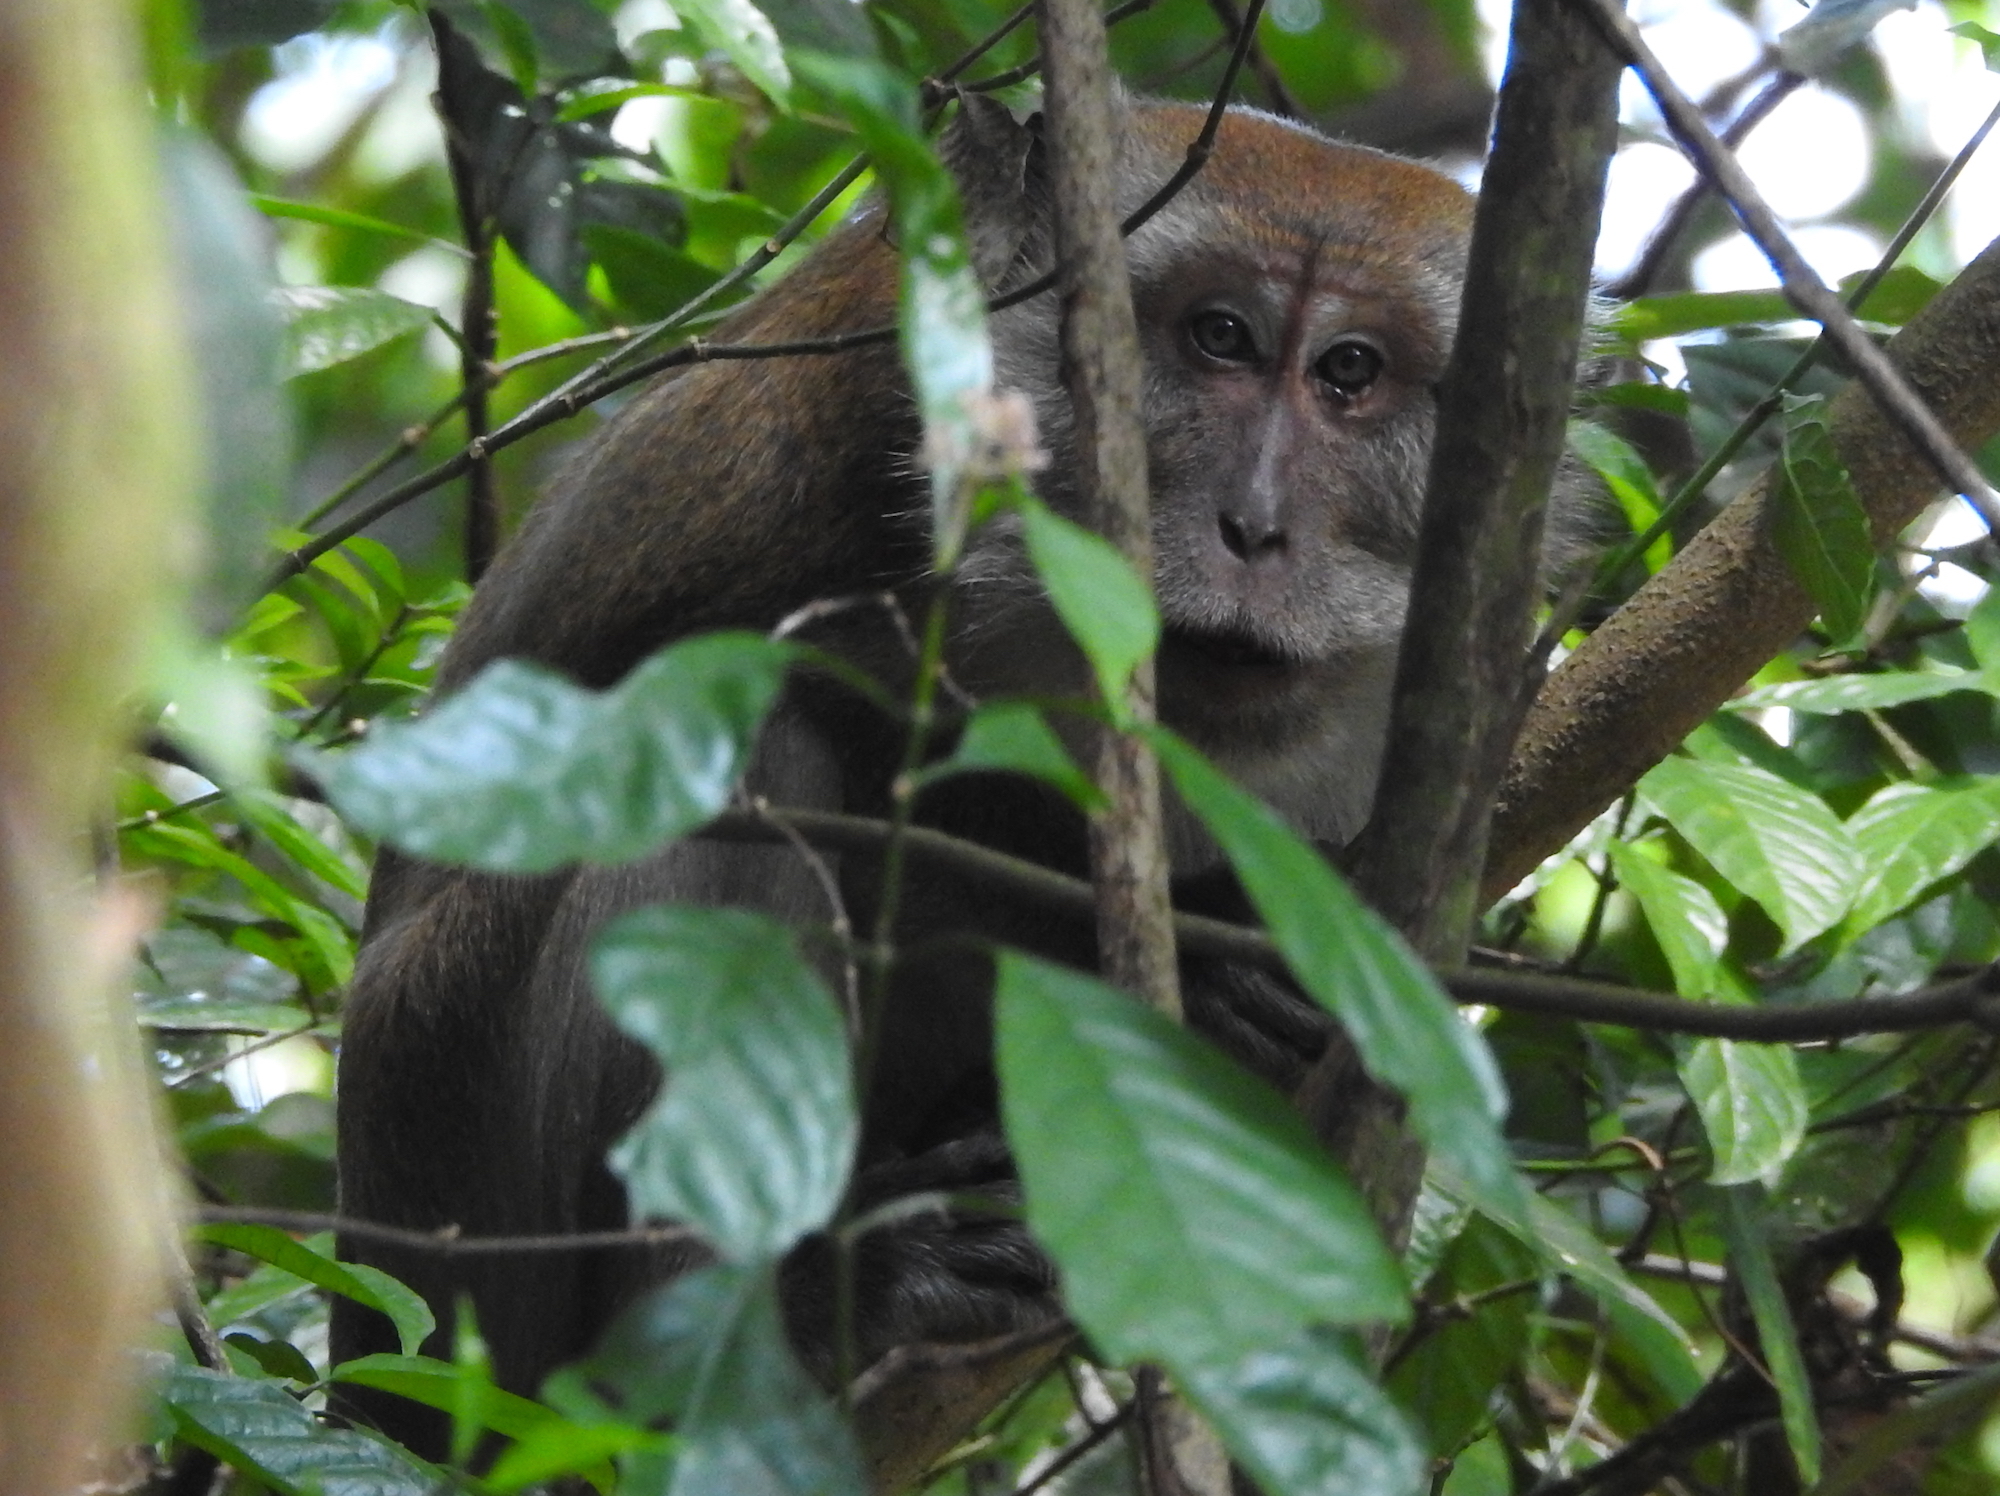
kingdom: Animalia
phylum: Chordata
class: Mammalia
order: Primates
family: Cercopithecidae
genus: Macaca
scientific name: Macaca fascicularis
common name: Crab-eating macaque
